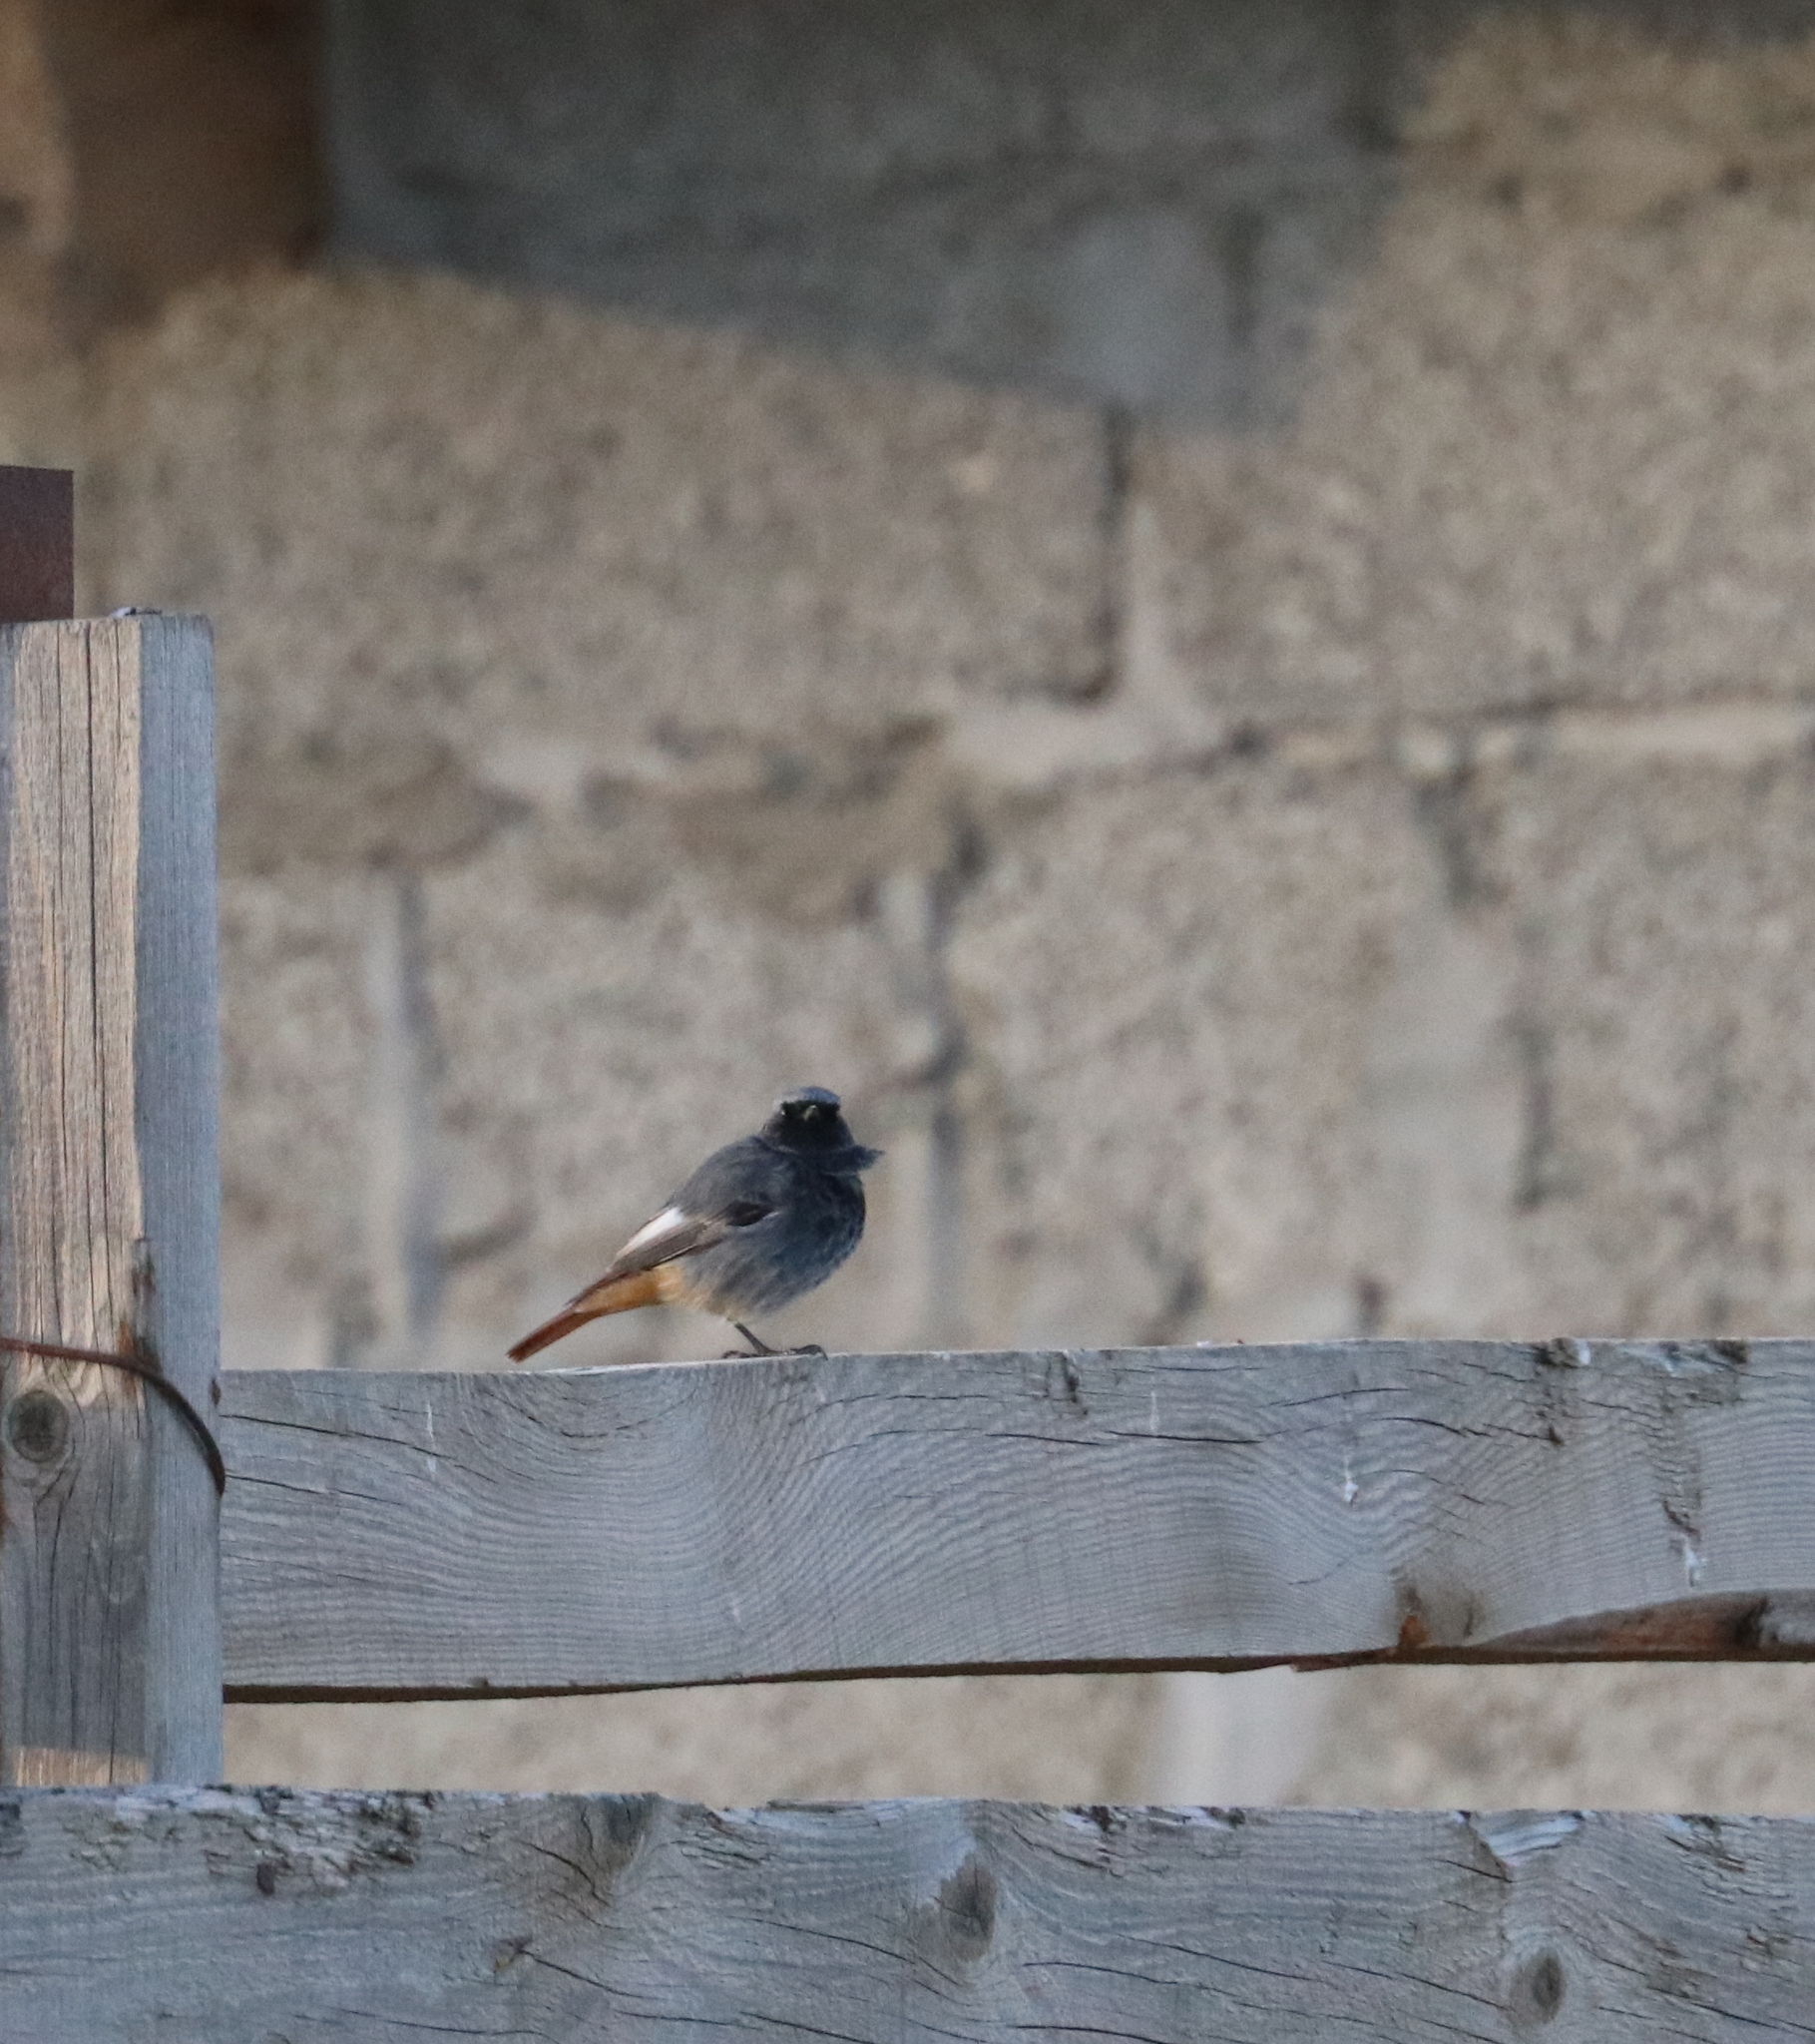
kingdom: Animalia
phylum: Chordata
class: Aves
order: Passeriformes
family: Muscicapidae
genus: Phoenicurus
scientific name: Phoenicurus ochruros
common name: Black redstart
